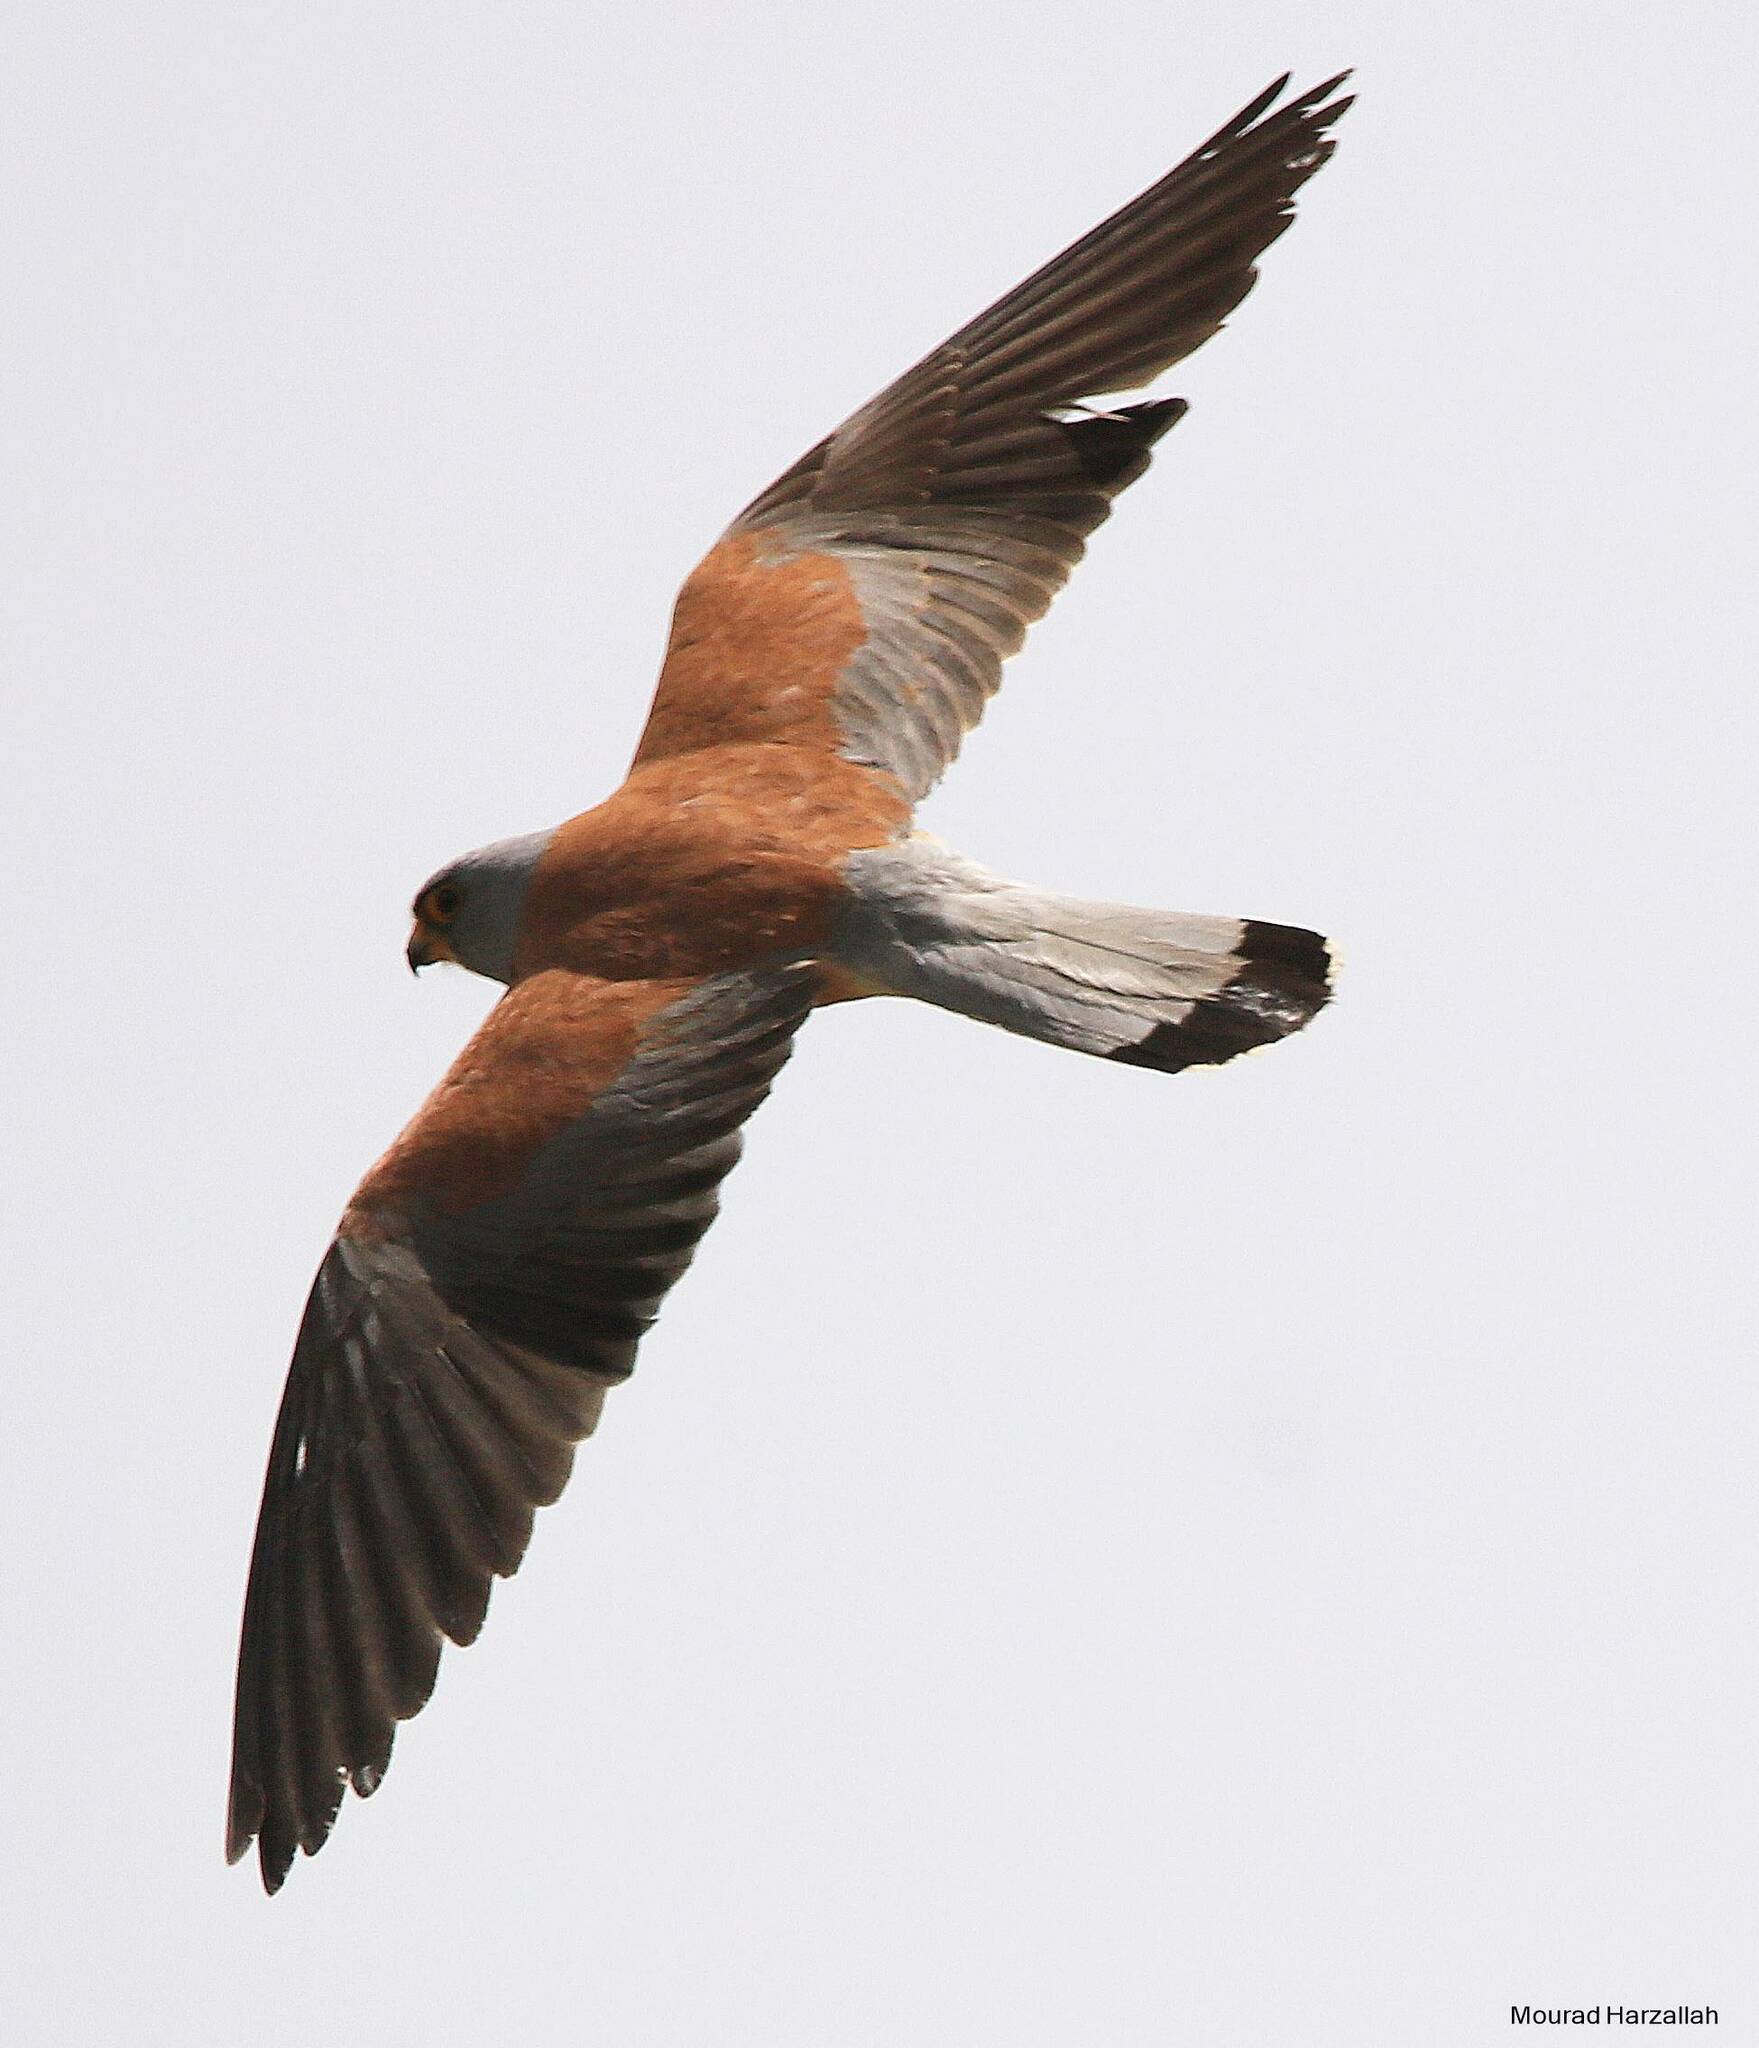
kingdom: Animalia
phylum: Chordata
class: Aves
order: Falconiformes
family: Falconidae
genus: Falco
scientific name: Falco naumanni
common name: Lesser kestrel
